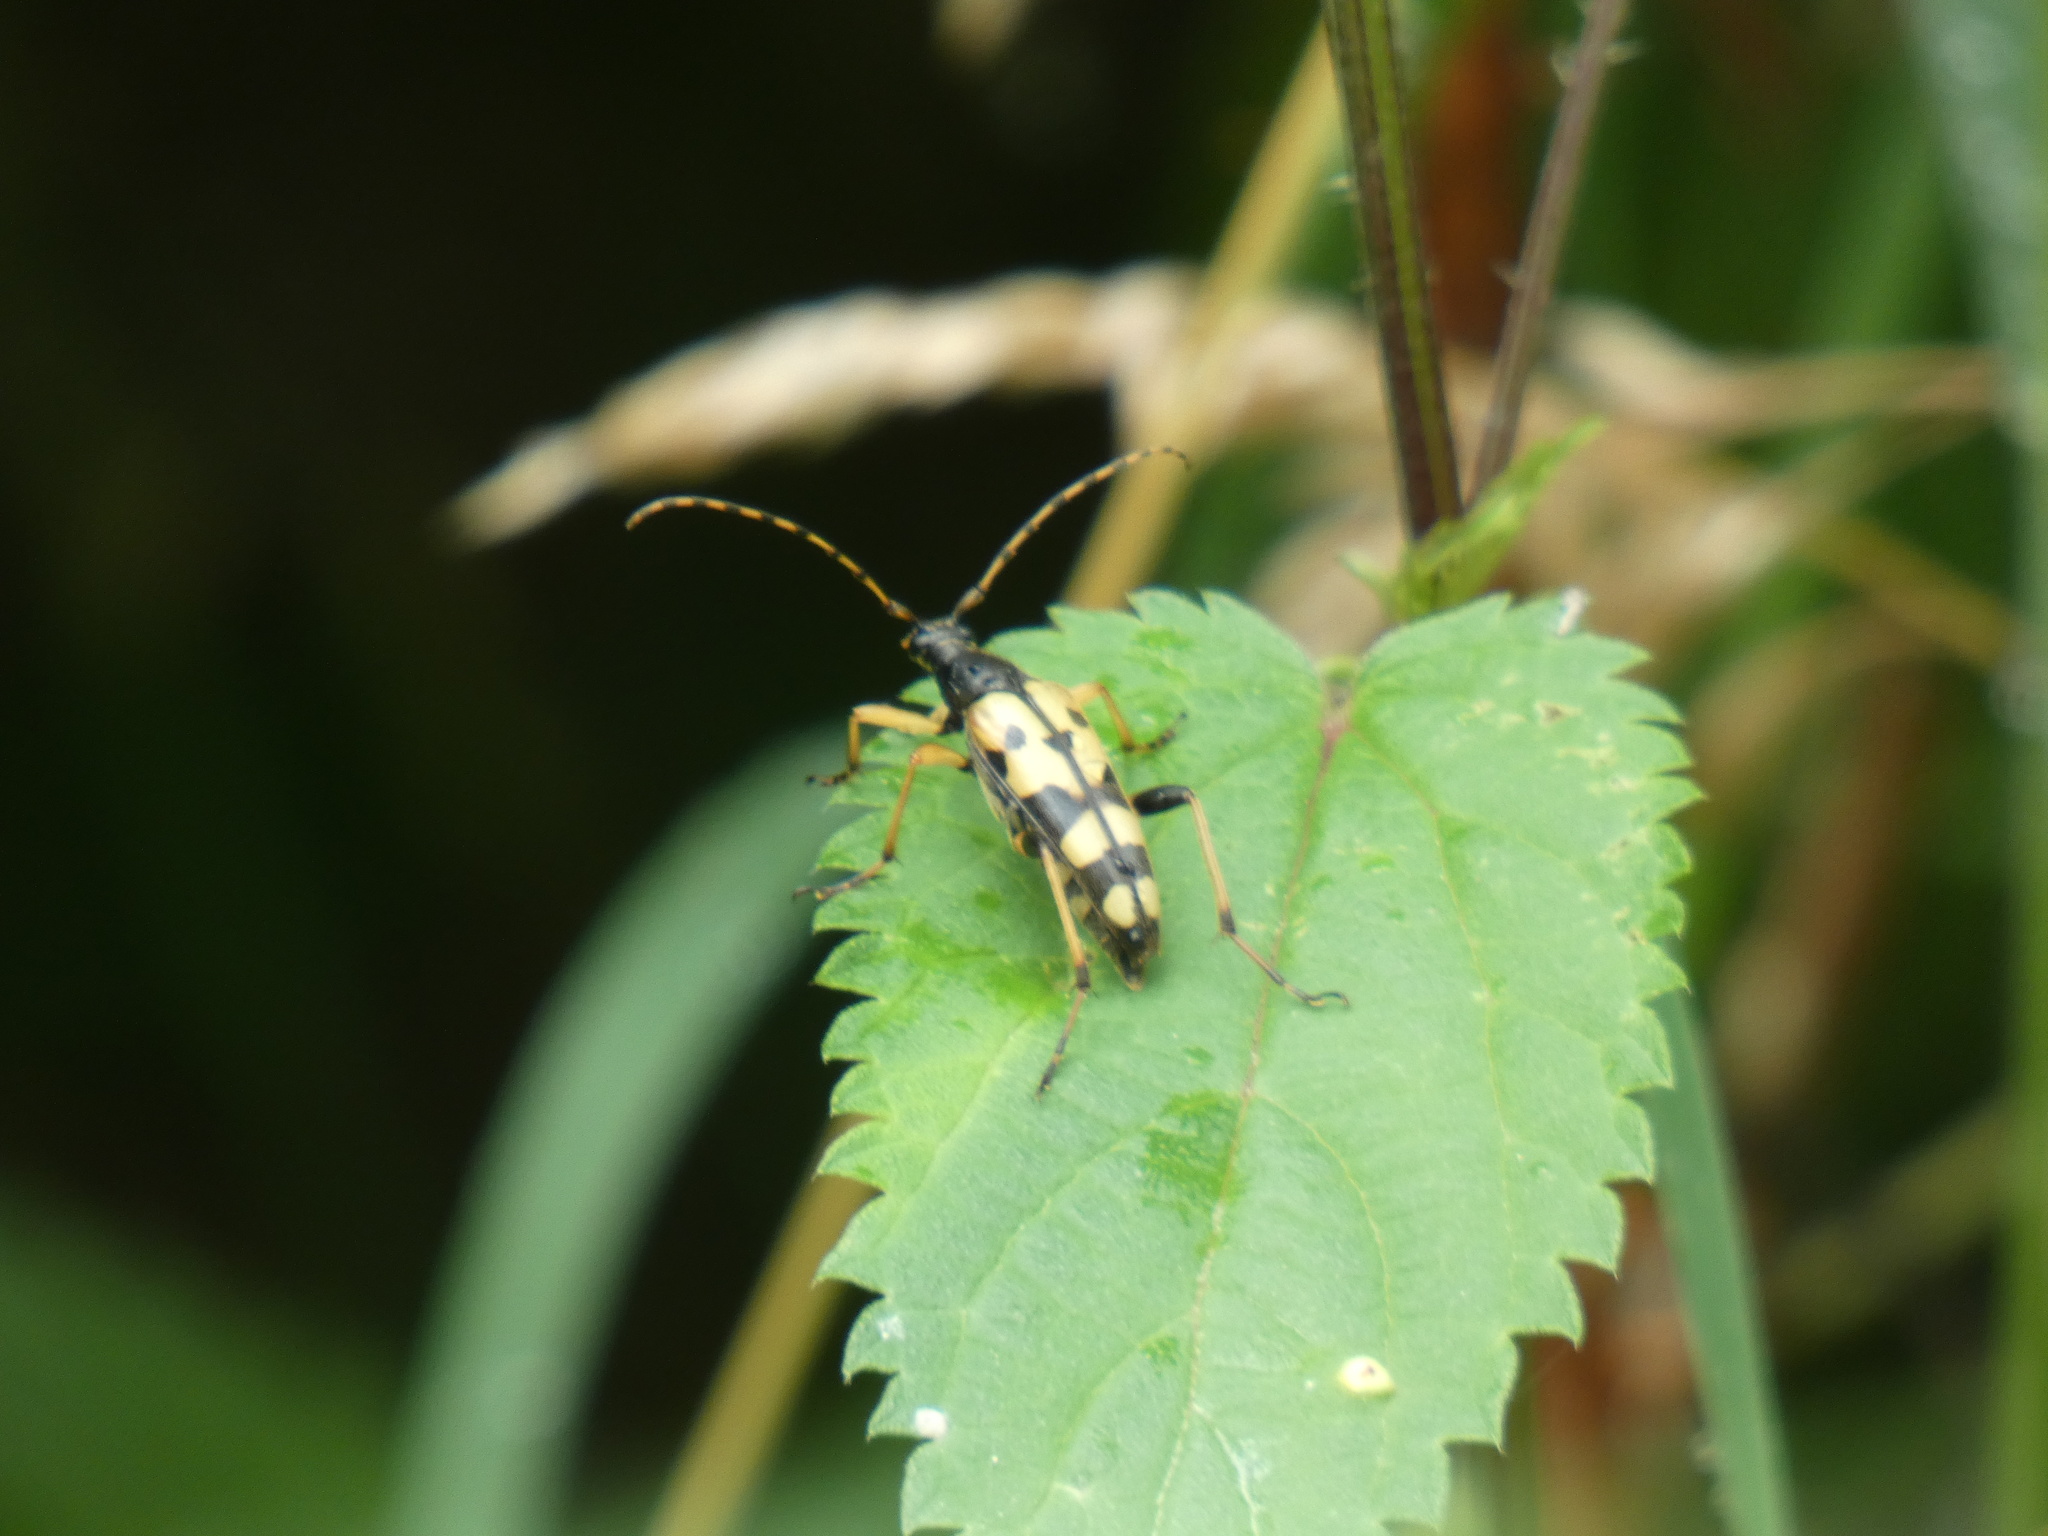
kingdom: Animalia
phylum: Arthropoda
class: Insecta
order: Coleoptera
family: Cerambycidae
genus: Rutpela
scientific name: Rutpela maculata
